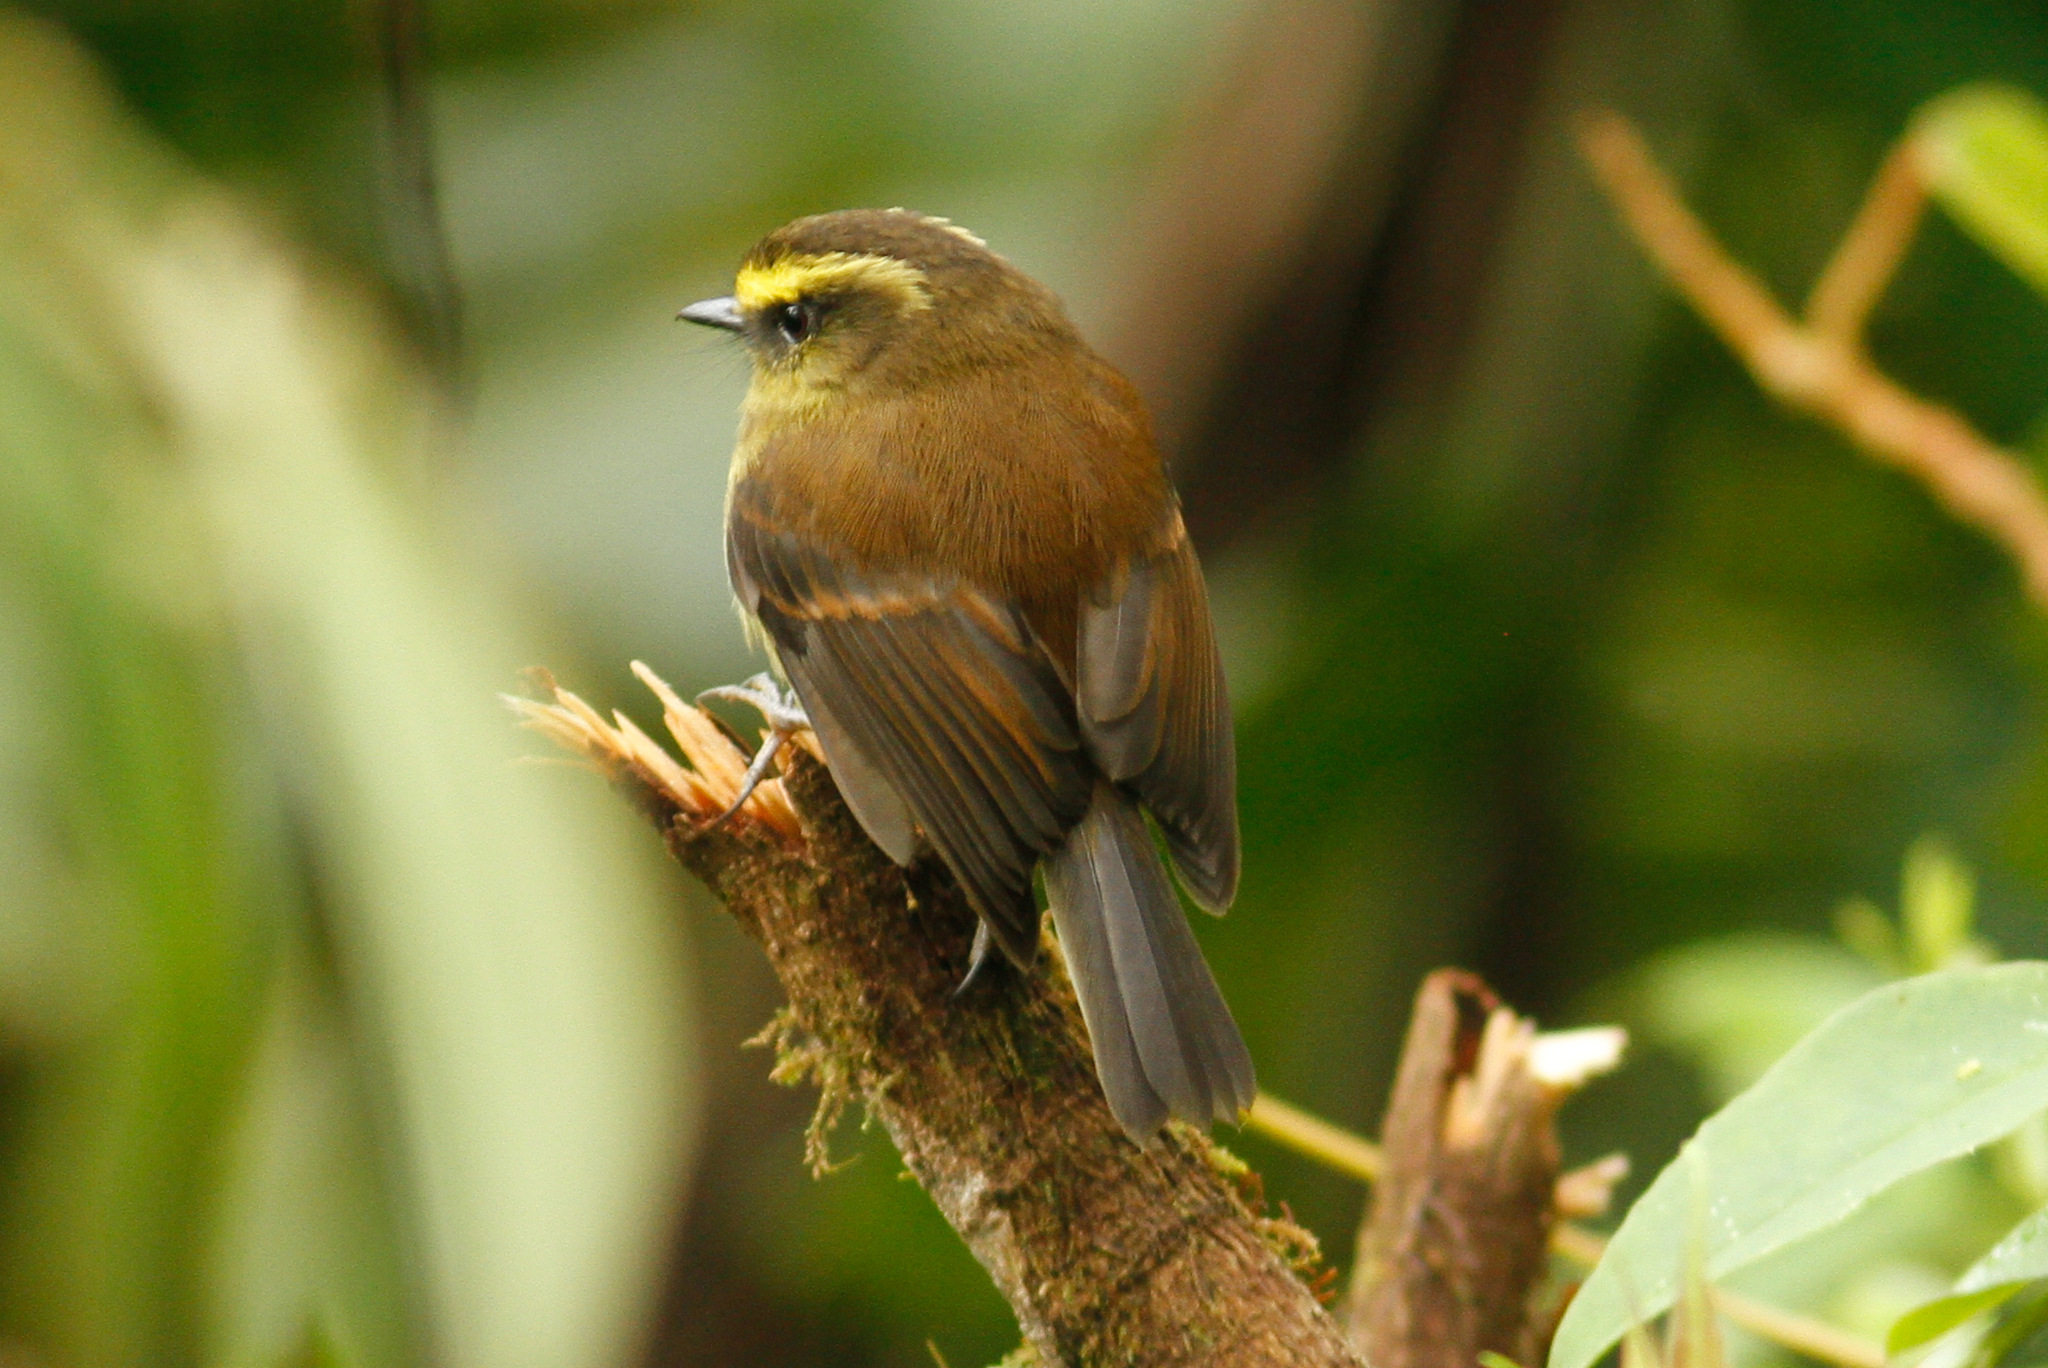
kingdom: Animalia
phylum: Chordata
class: Aves
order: Passeriformes
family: Tyrannidae
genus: Ochthoeca
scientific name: Ochthoeca diadema
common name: Yellow-bellied chat-tyrant
